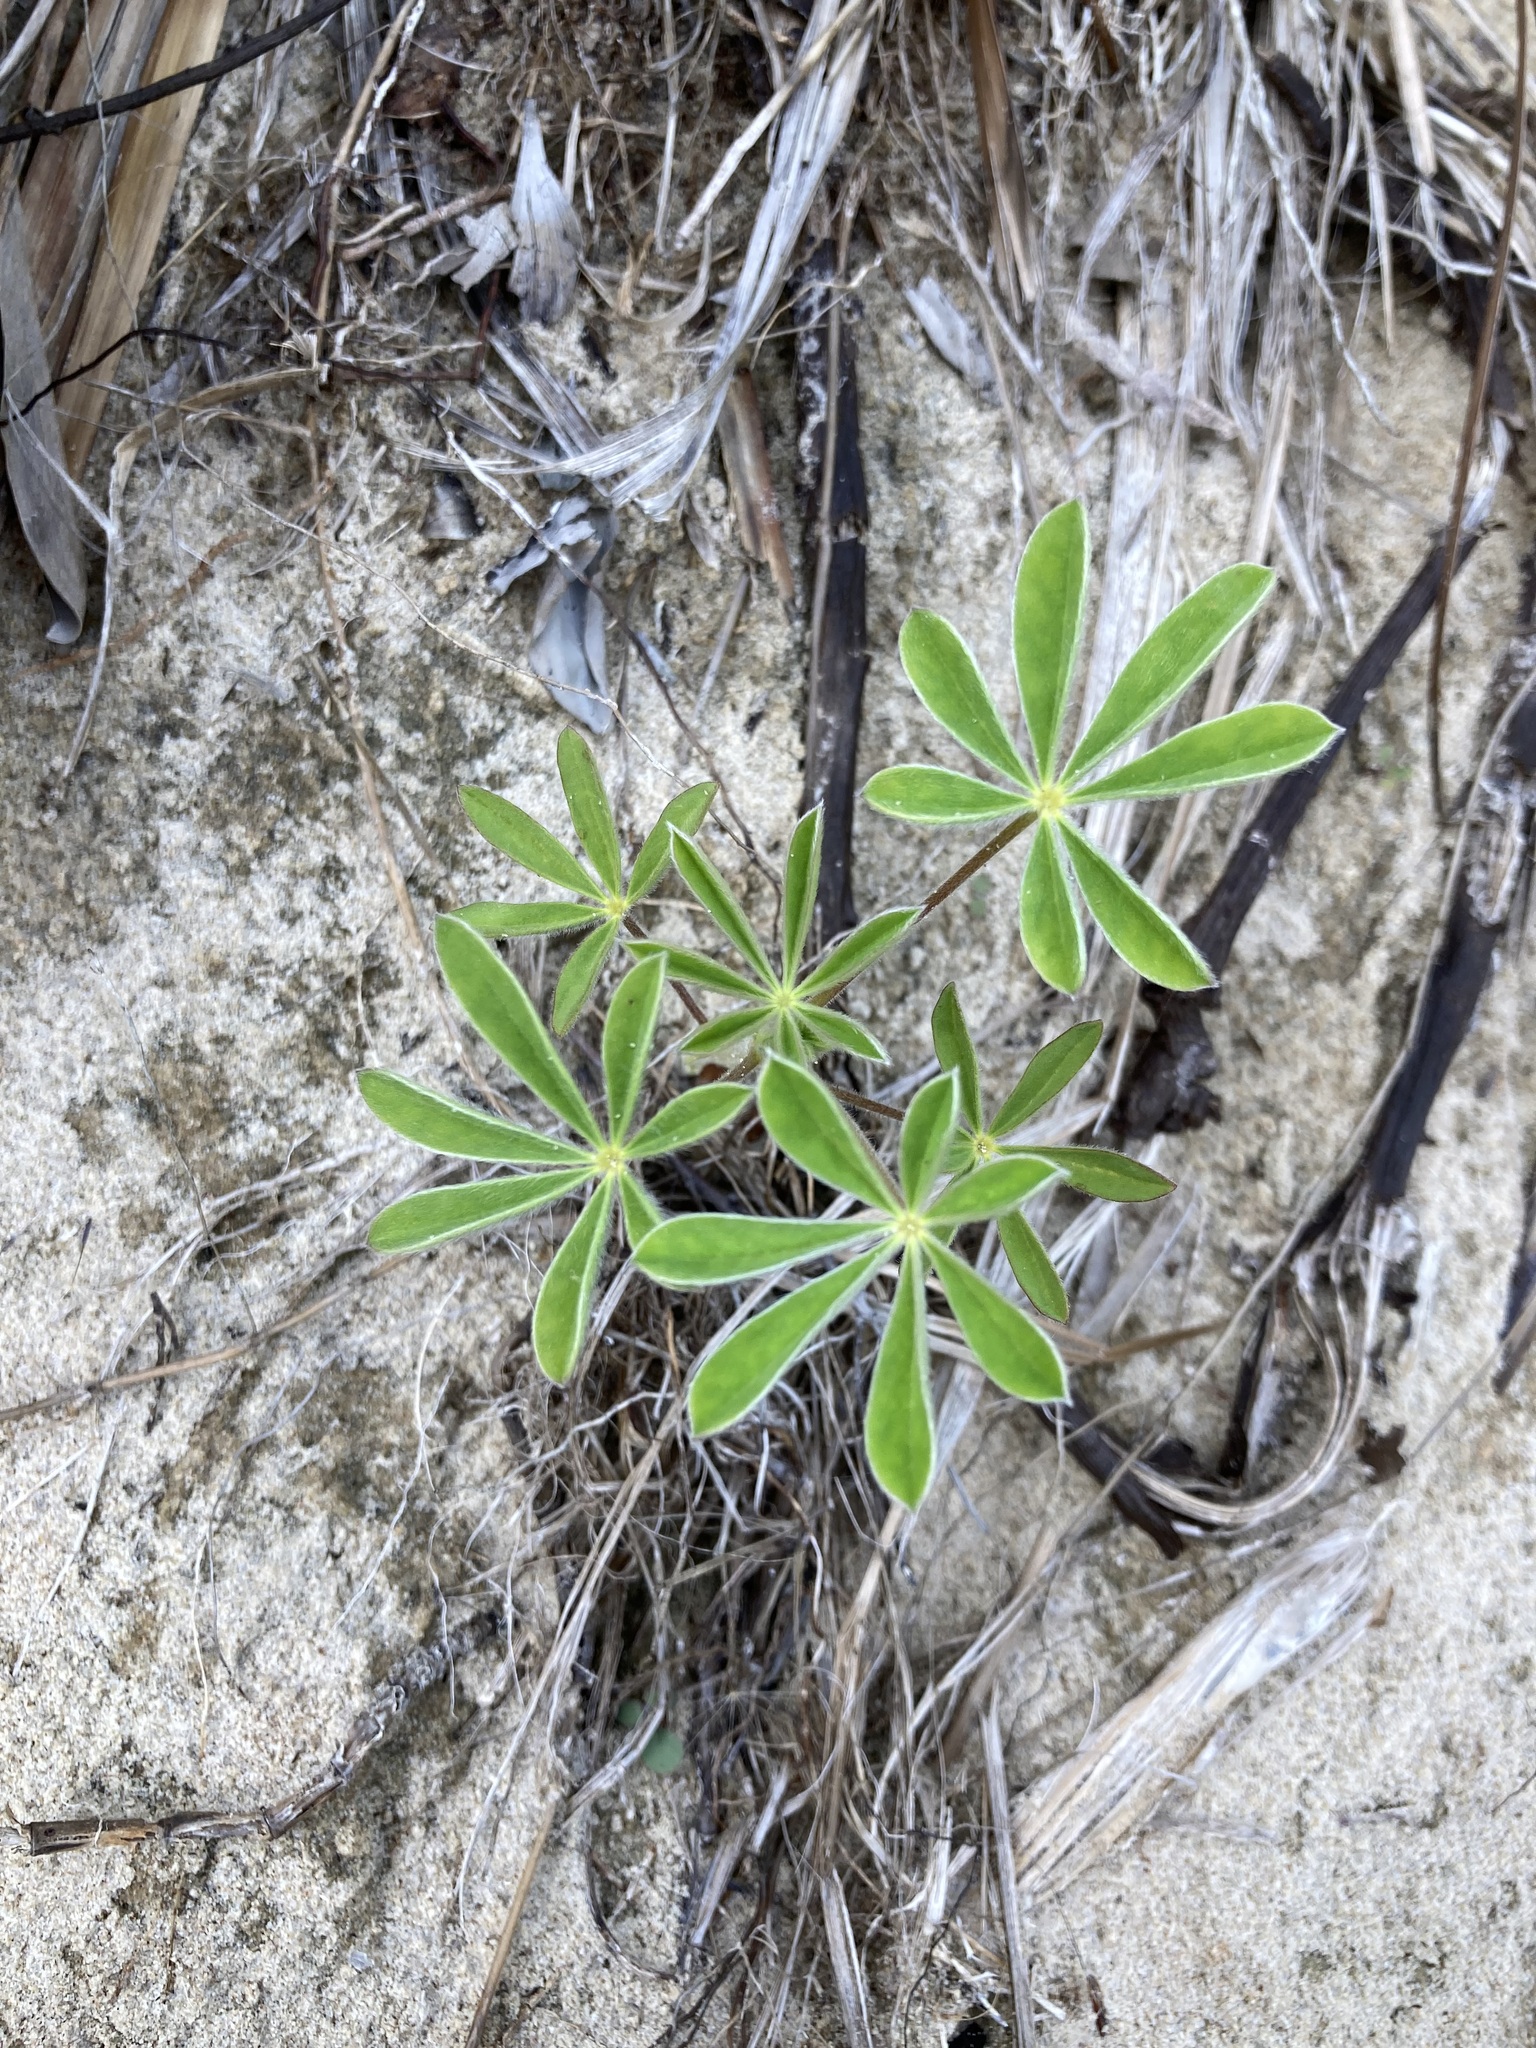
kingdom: Plantae
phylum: Tracheophyta
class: Magnoliopsida
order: Fabales
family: Fabaceae
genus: Lupinus
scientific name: Lupinus cosentinii
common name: Hairy blue lupin
